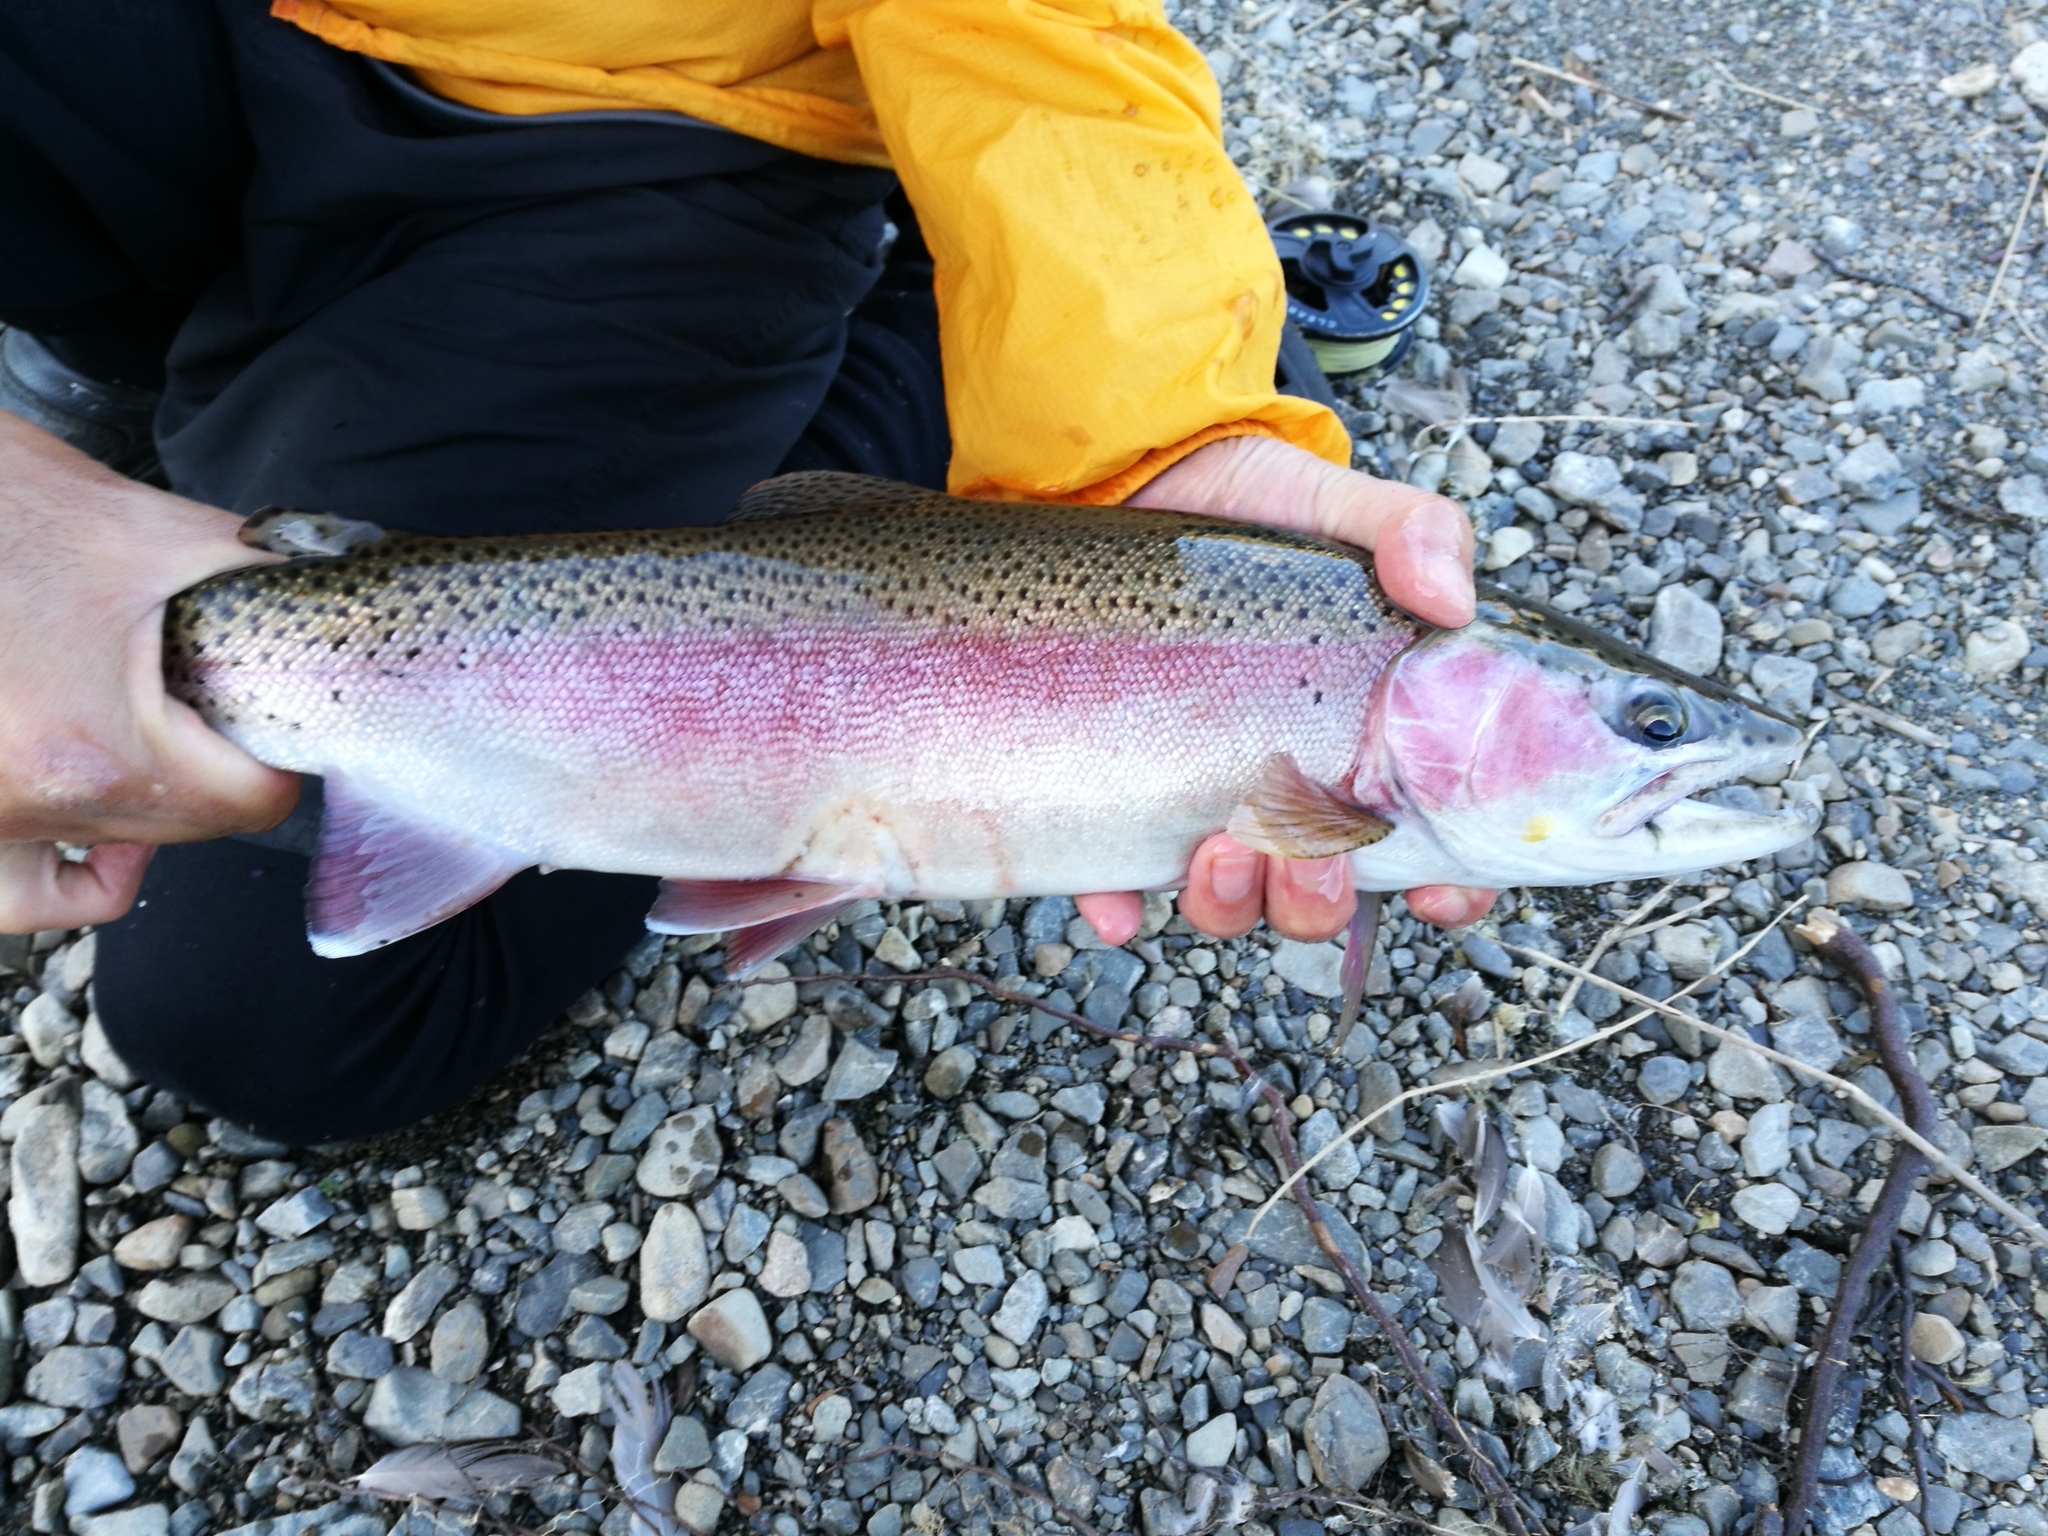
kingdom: Animalia
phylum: Chordata
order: Salmoniformes
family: Salmonidae
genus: Oncorhynchus
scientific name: Oncorhynchus mykiss
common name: Rainbow trout
